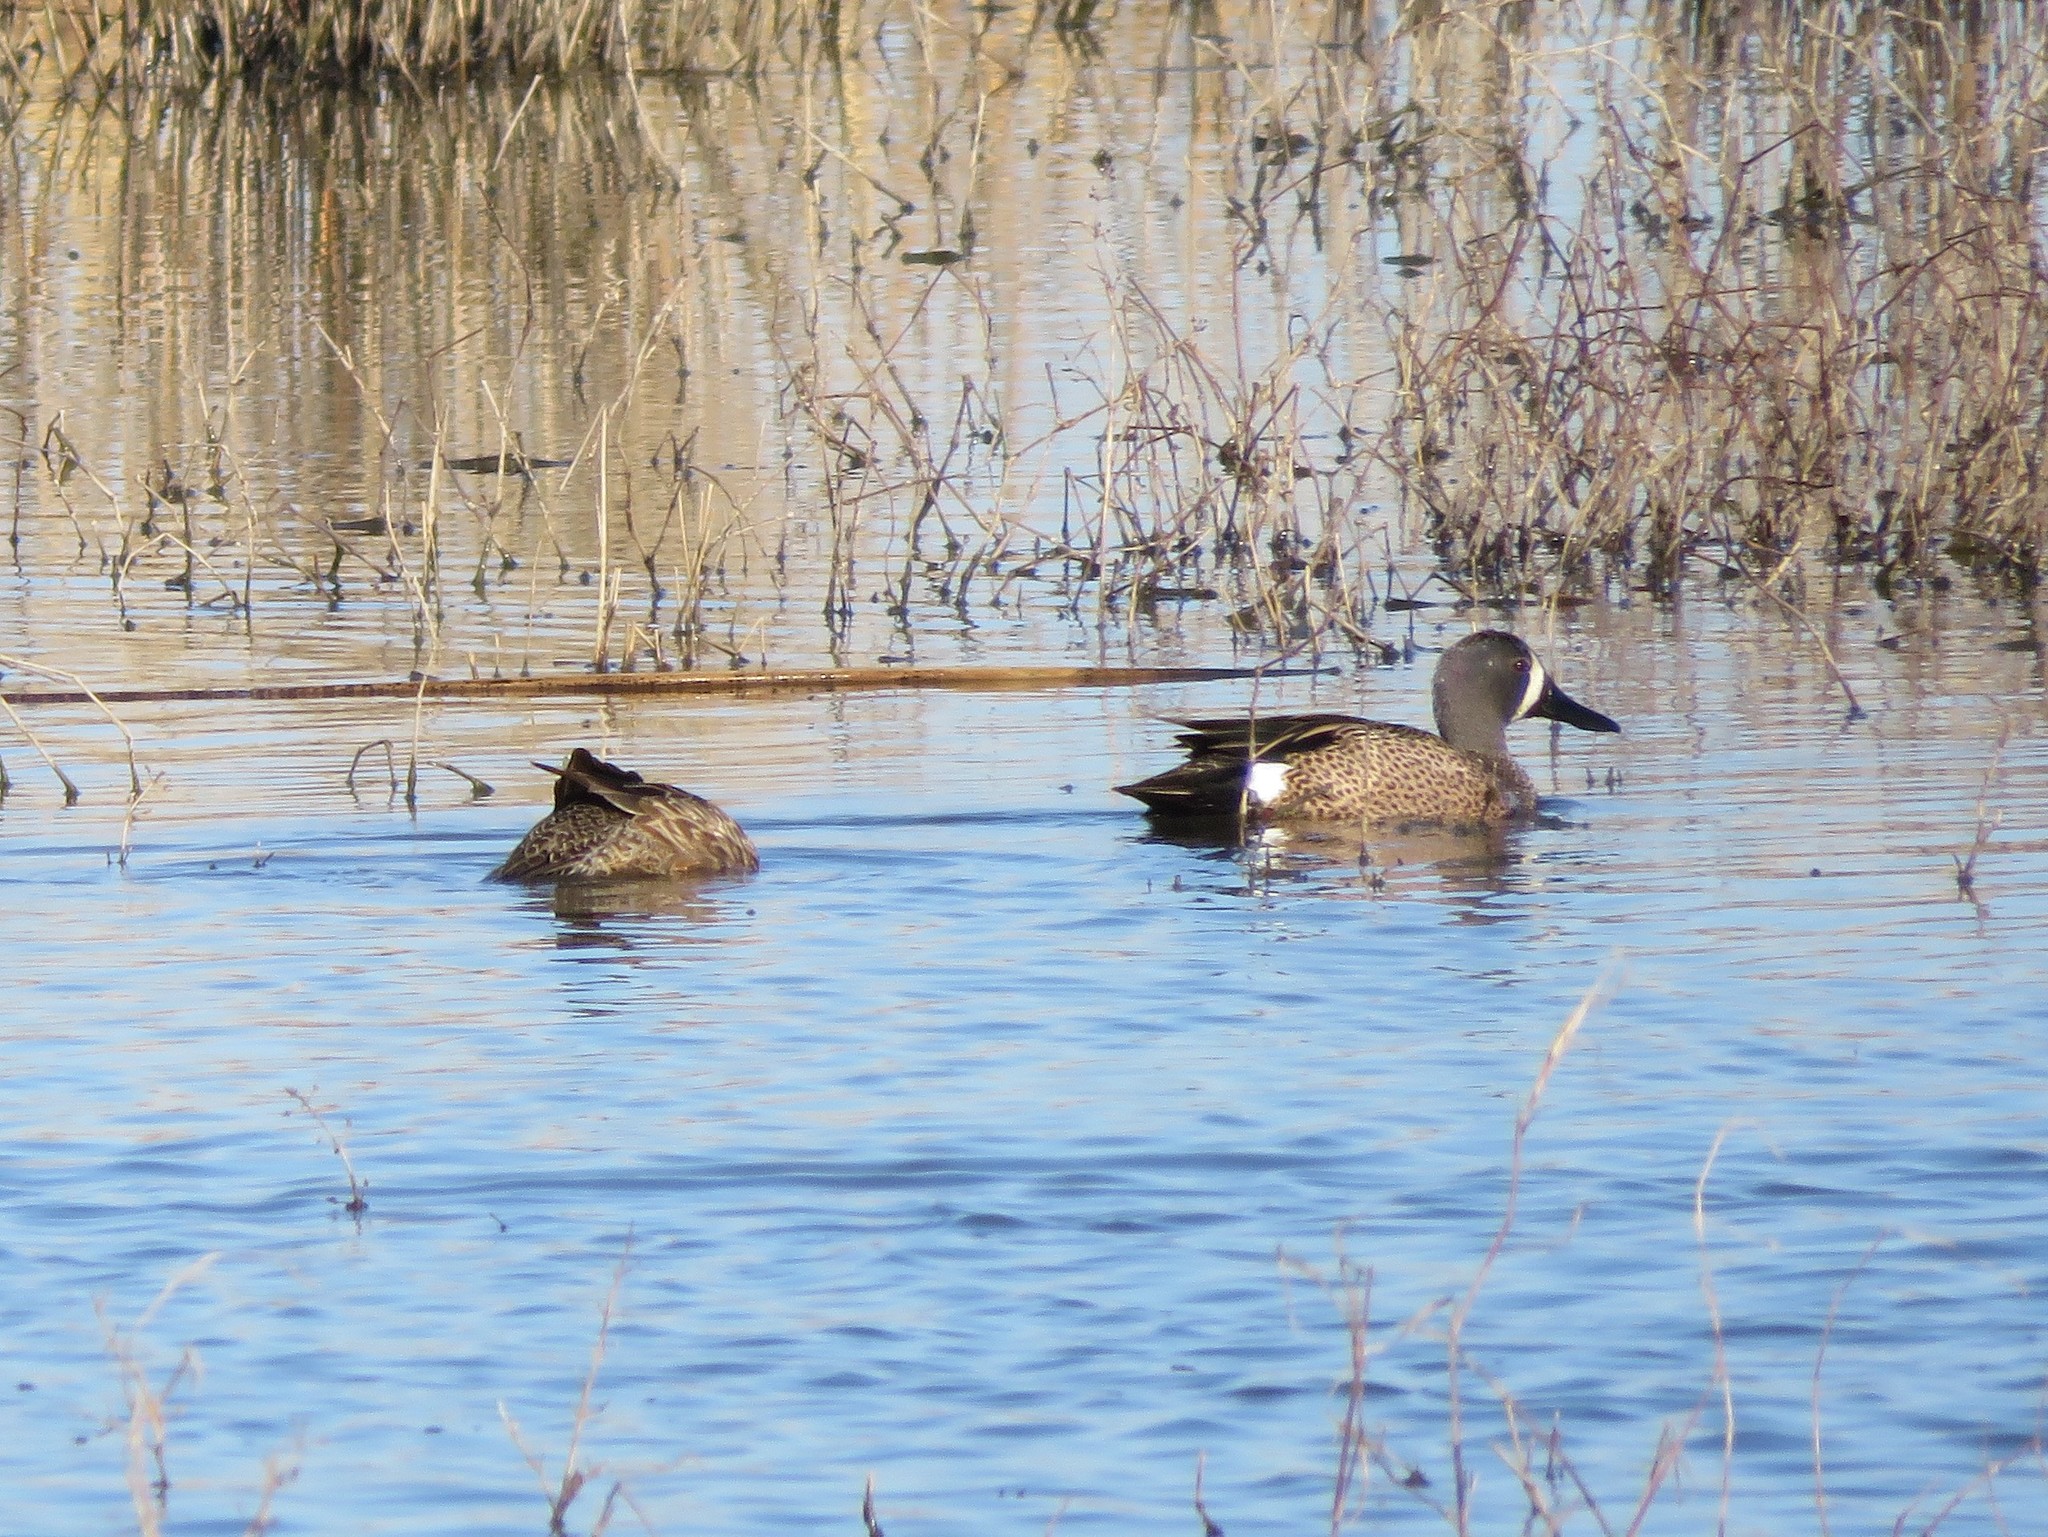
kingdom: Animalia
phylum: Chordata
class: Aves
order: Anseriformes
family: Anatidae
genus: Spatula
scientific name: Spatula discors
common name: Blue-winged teal
